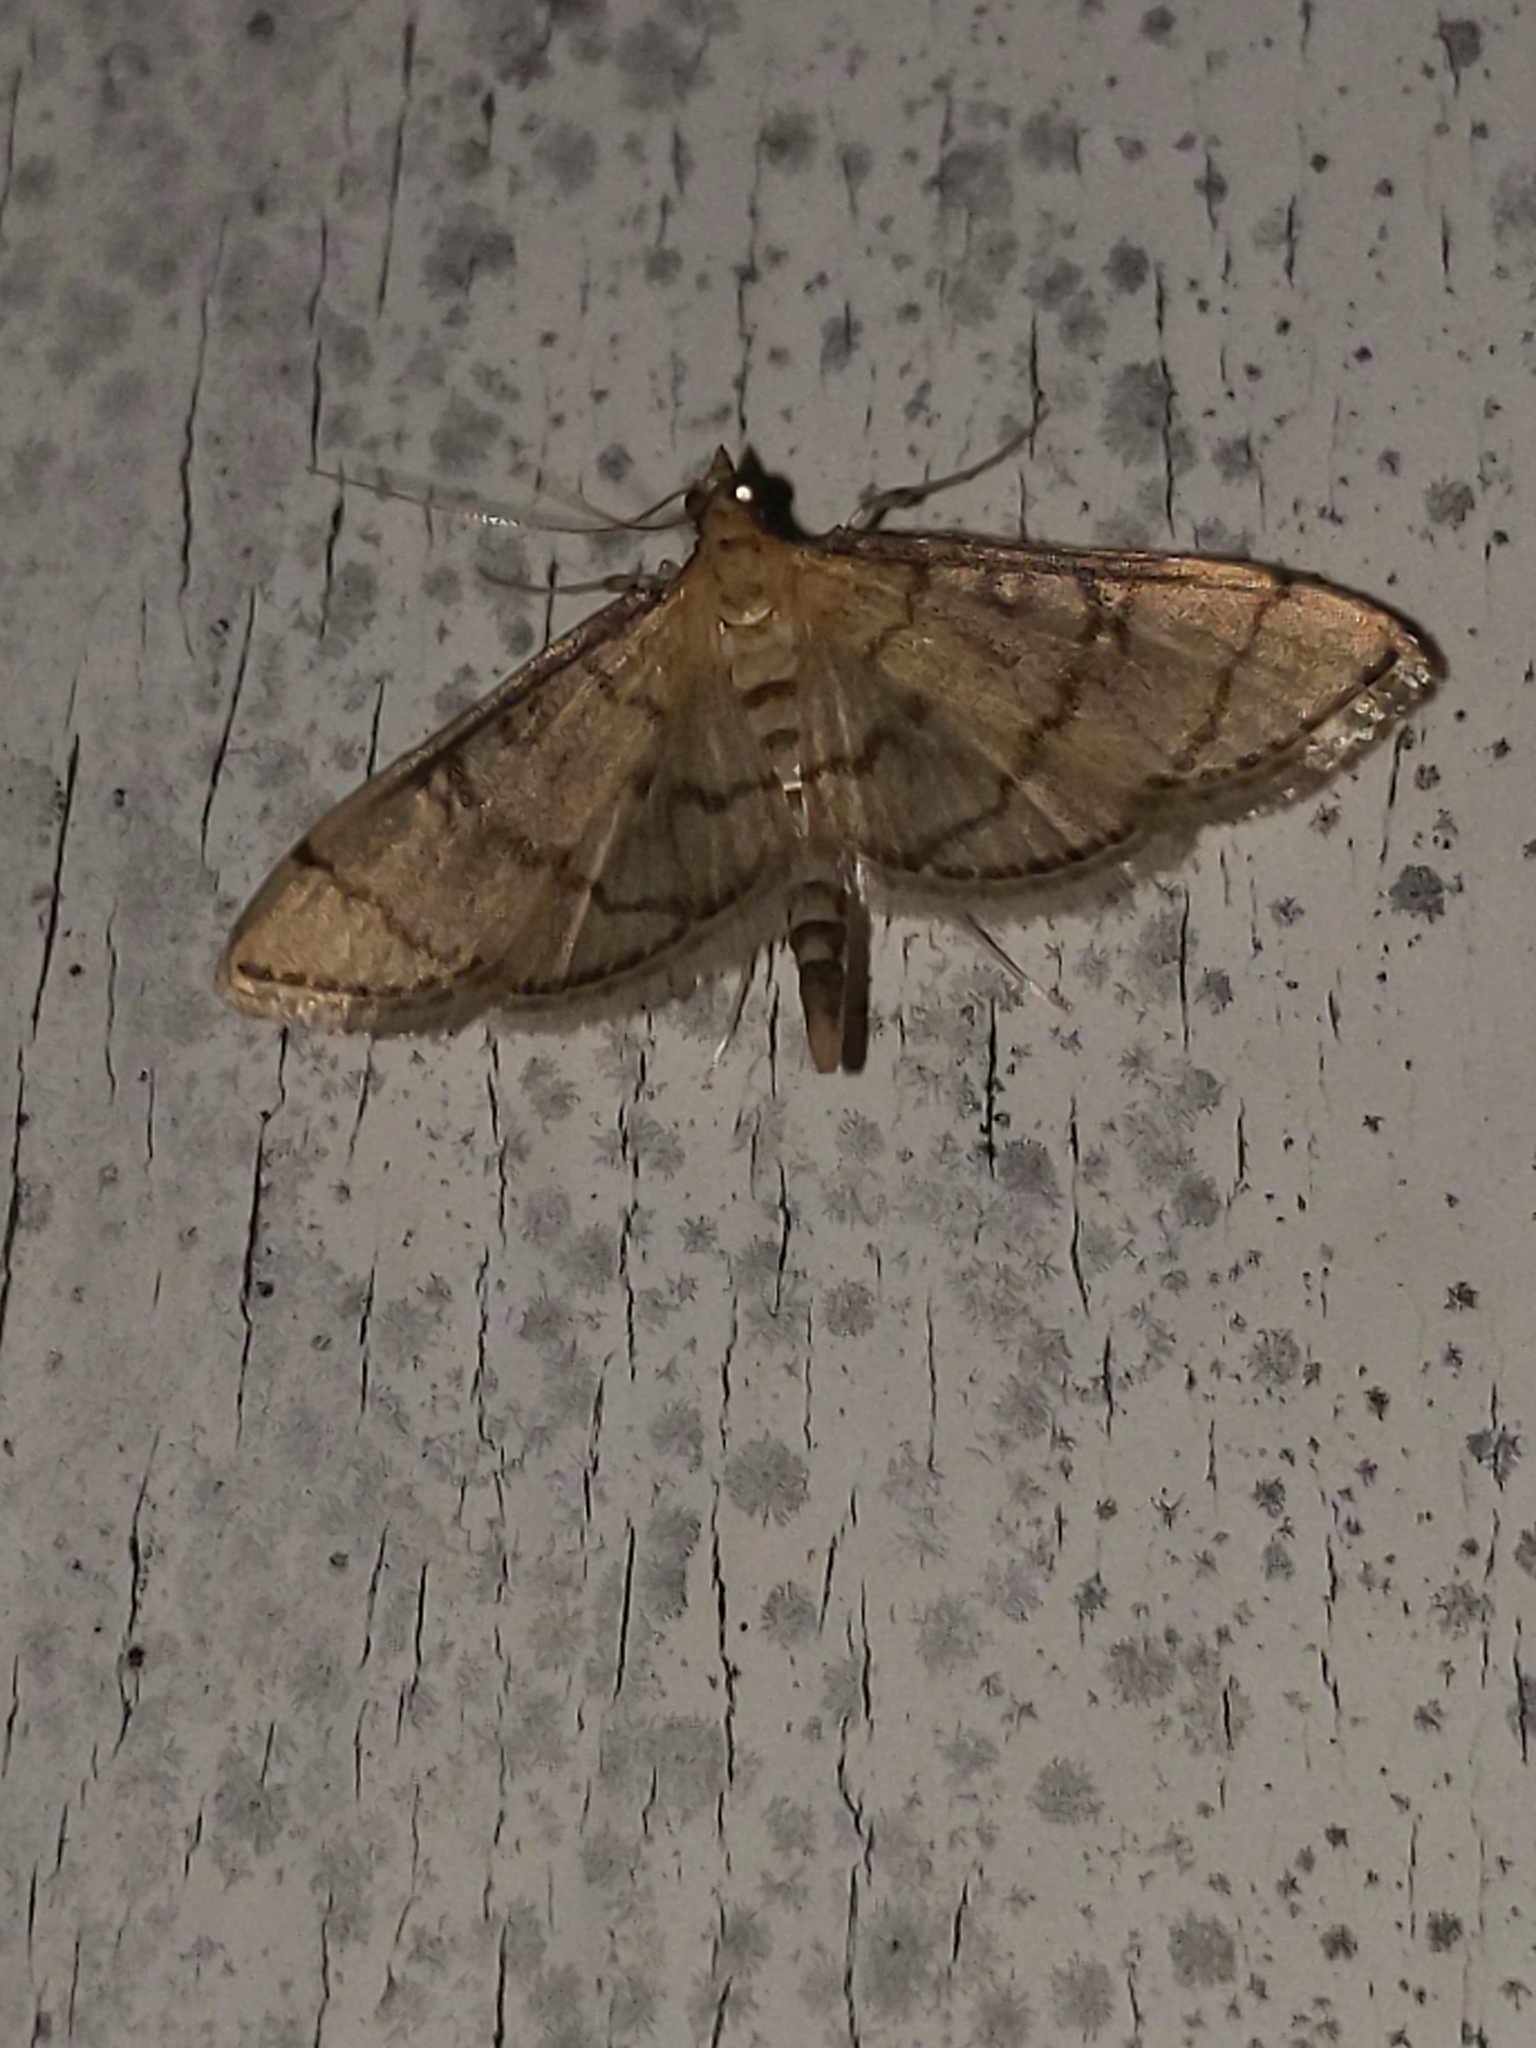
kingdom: Animalia
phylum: Arthropoda
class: Insecta
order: Lepidoptera
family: Crambidae
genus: Lamprosema
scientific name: Lamprosema Blepharomastix ranalis
